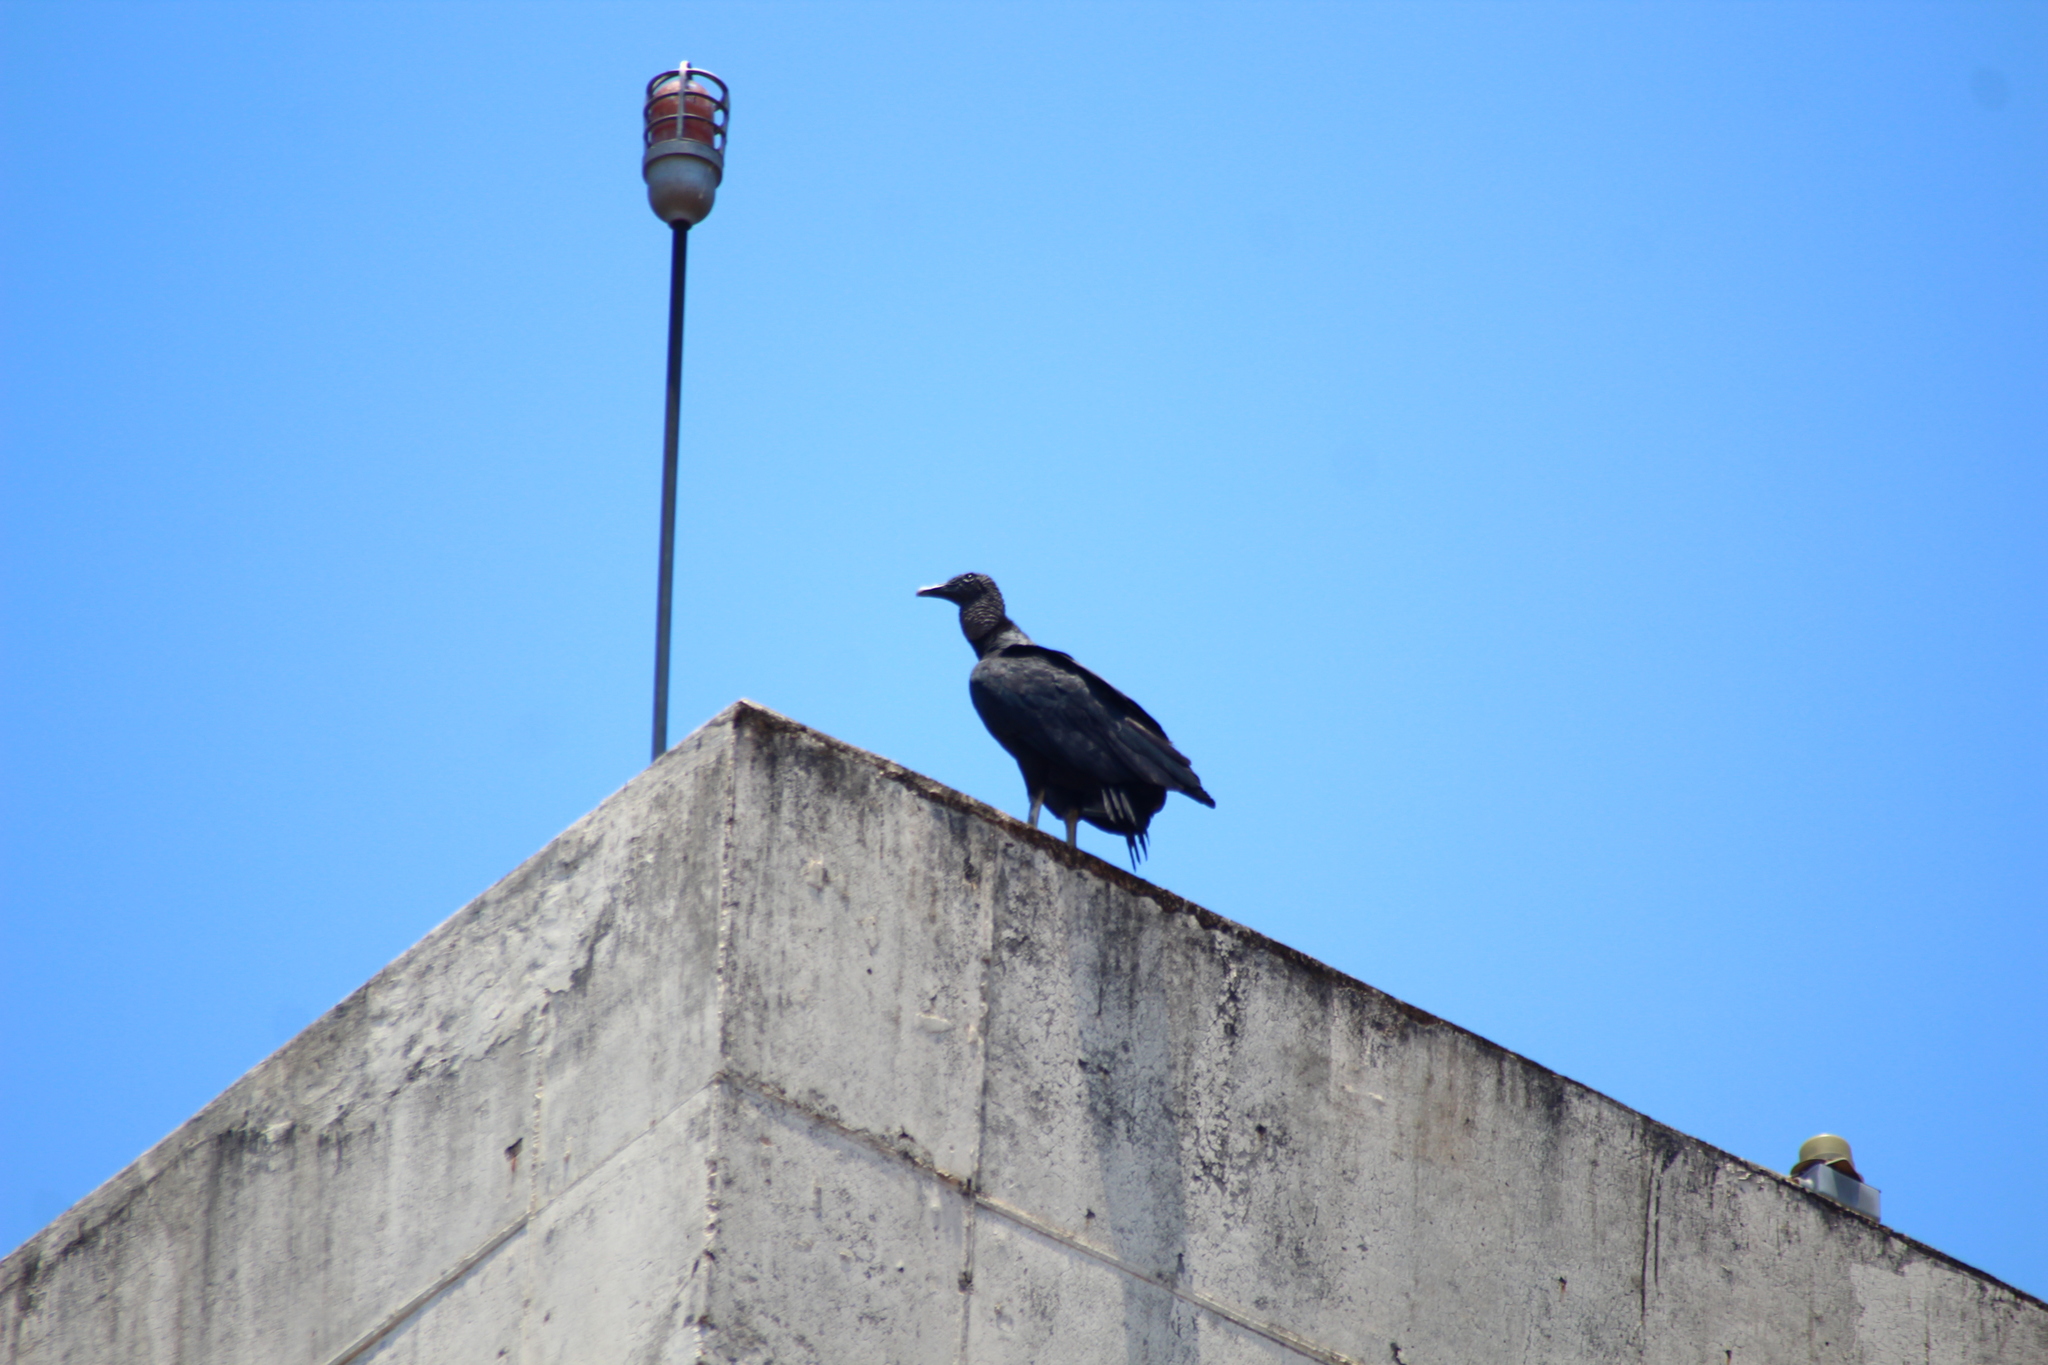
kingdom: Animalia
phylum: Chordata
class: Aves
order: Accipitriformes
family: Cathartidae
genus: Coragyps
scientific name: Coragyps atratus
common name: Black vulture
